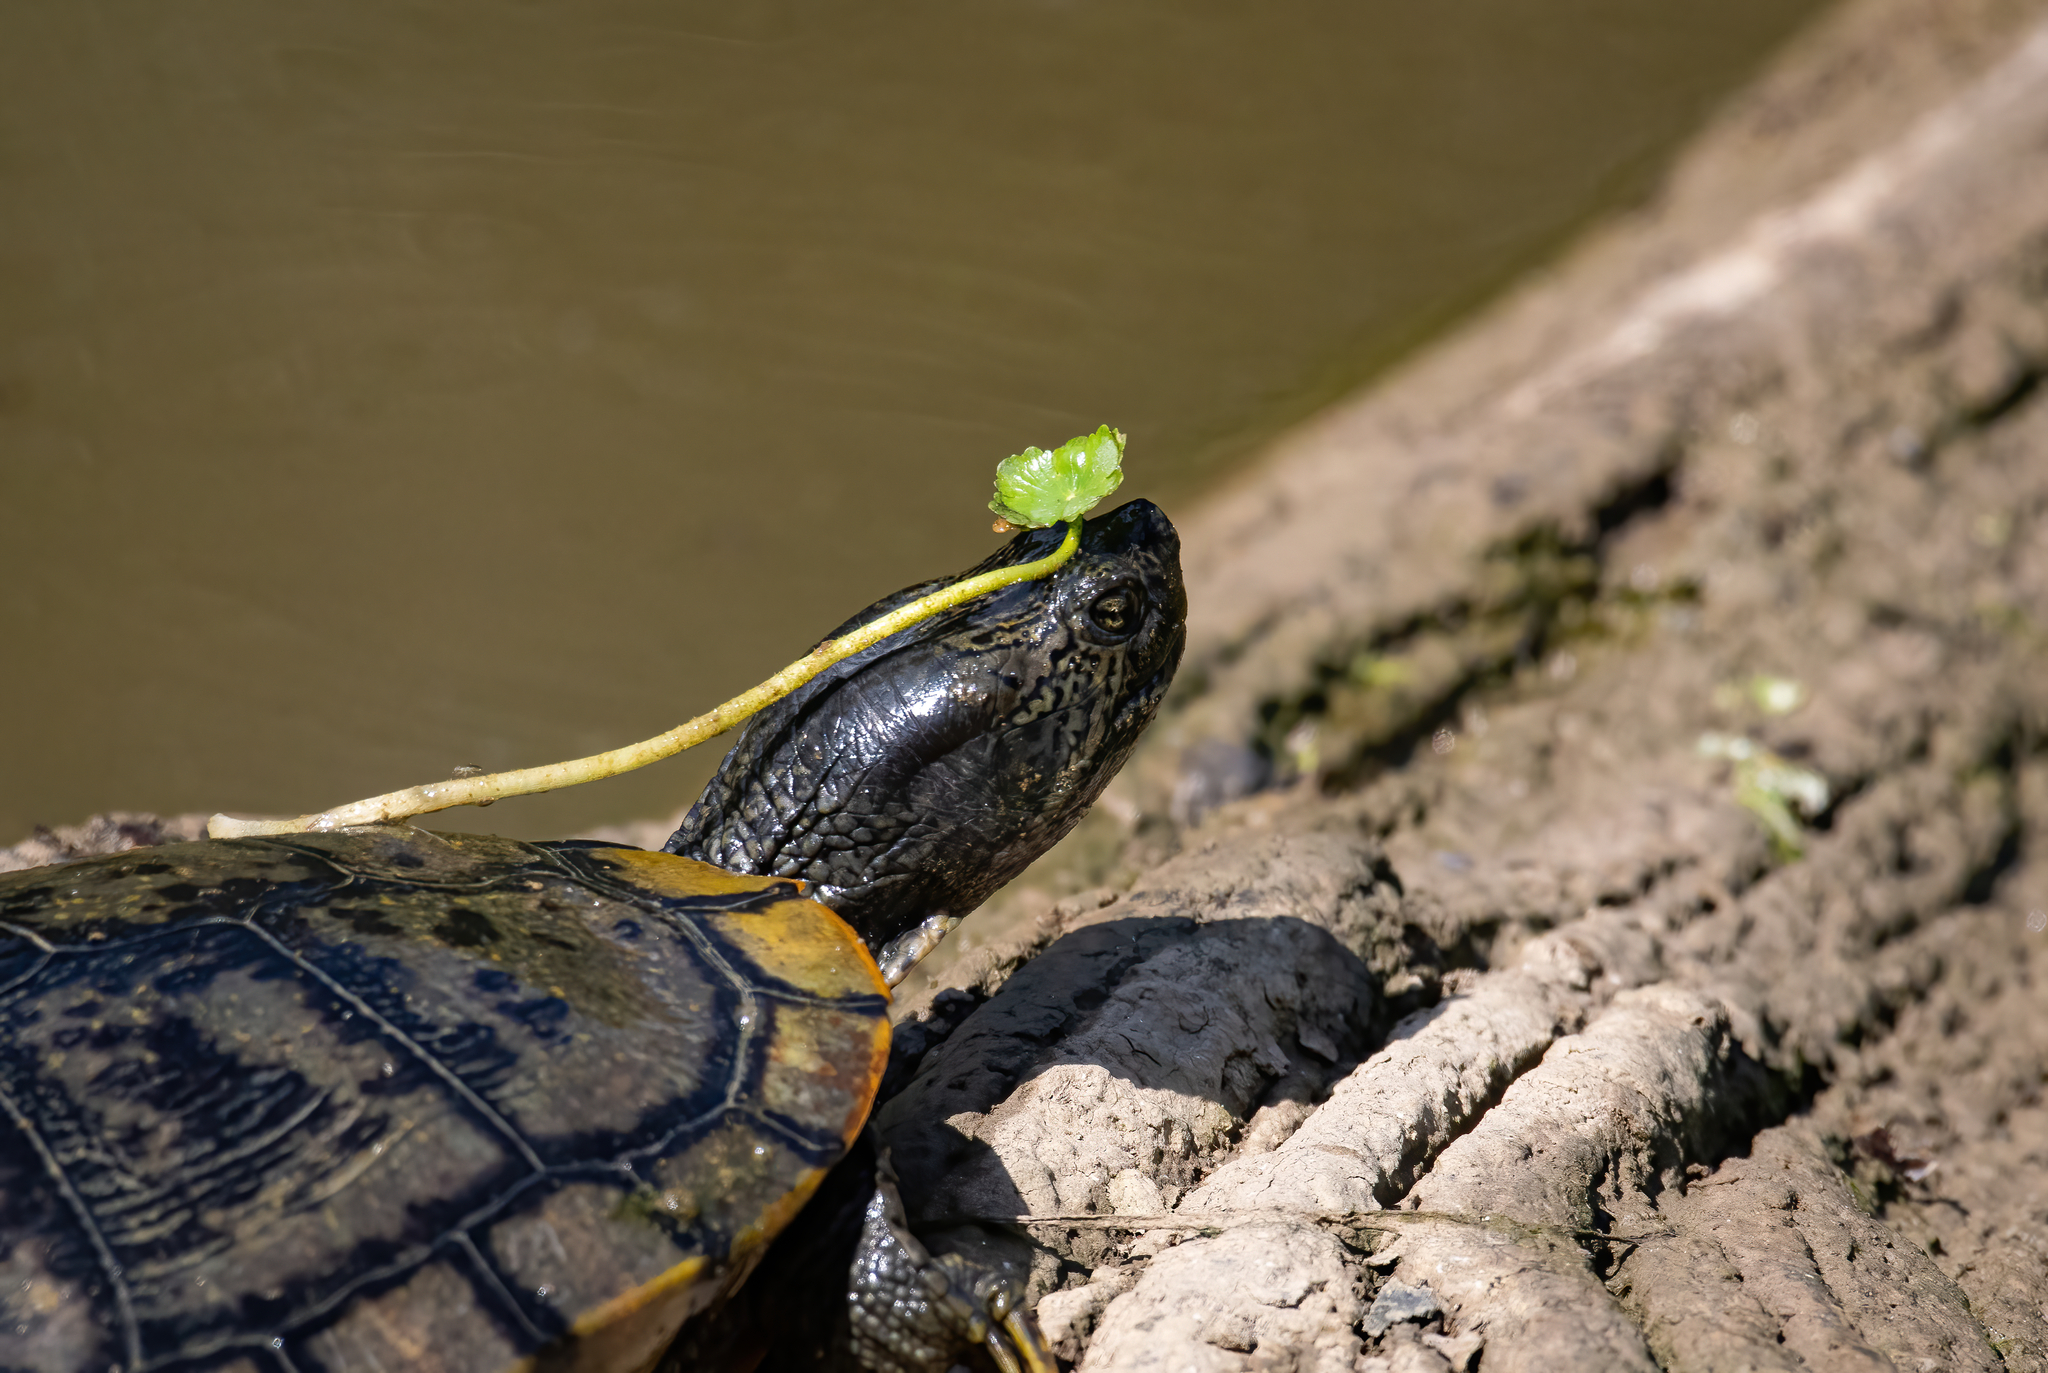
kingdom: Animalia
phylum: Chordata
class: Testudines
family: Emydidae
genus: Trachemys
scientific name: Trachemys scripta
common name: Slider
